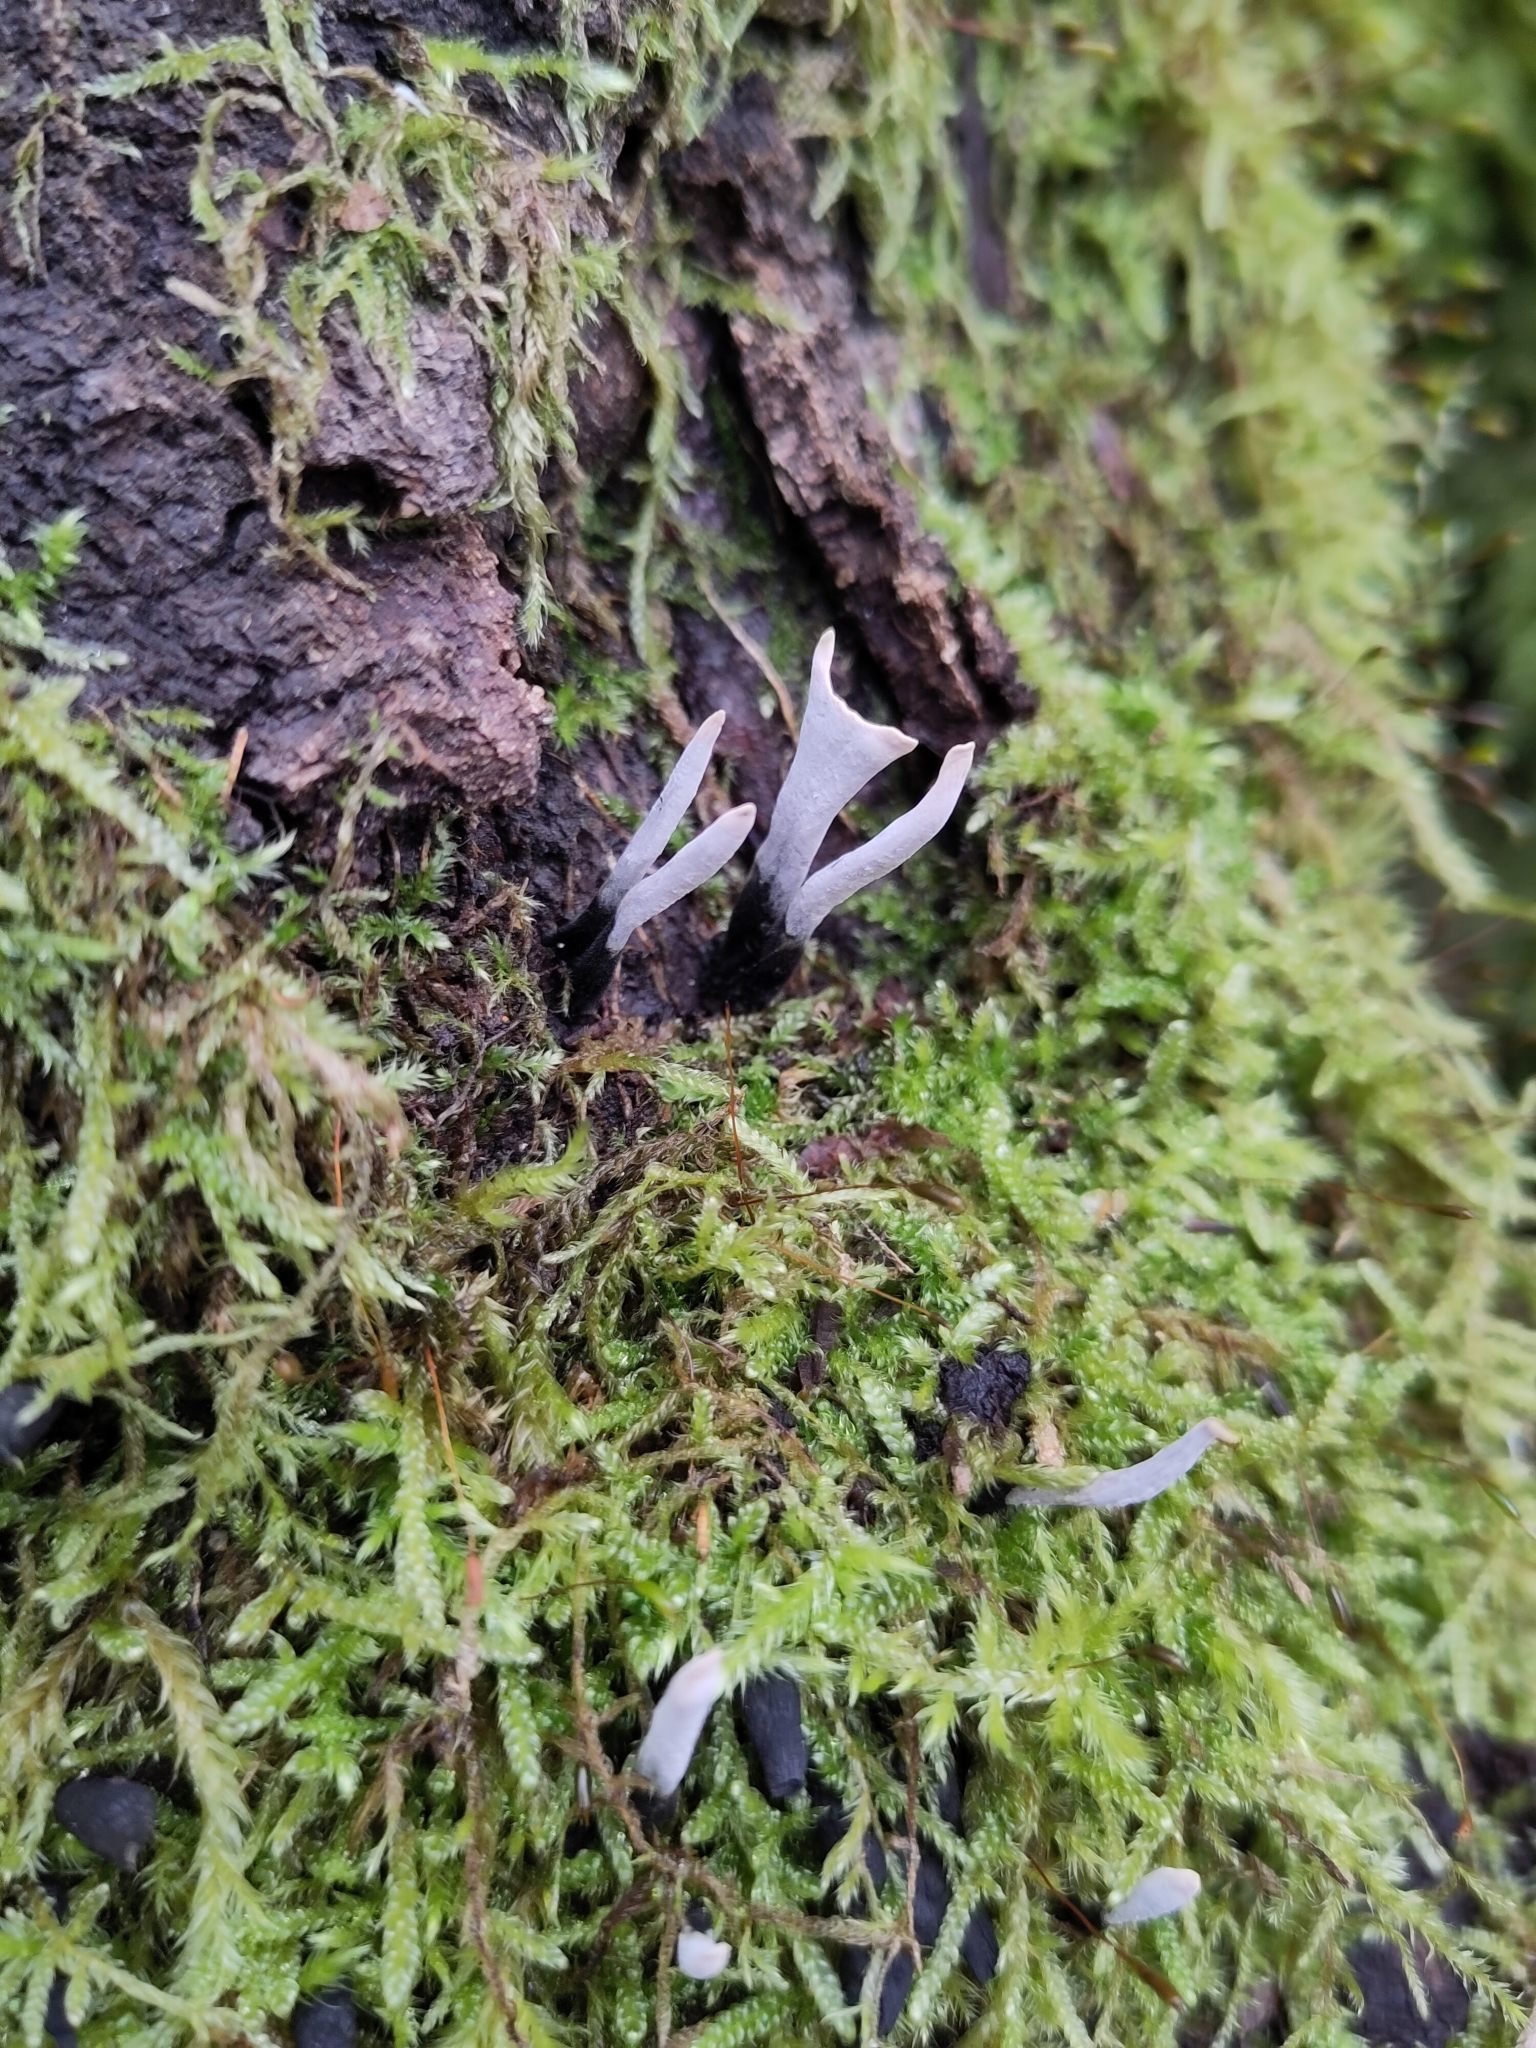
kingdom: Fungi
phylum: Ascomycota
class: Sordariomycetes
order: Xylariales
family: Xylariaceae
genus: Xylaria
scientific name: Xylaria hypoxylon
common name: Candle-snuff fungus
